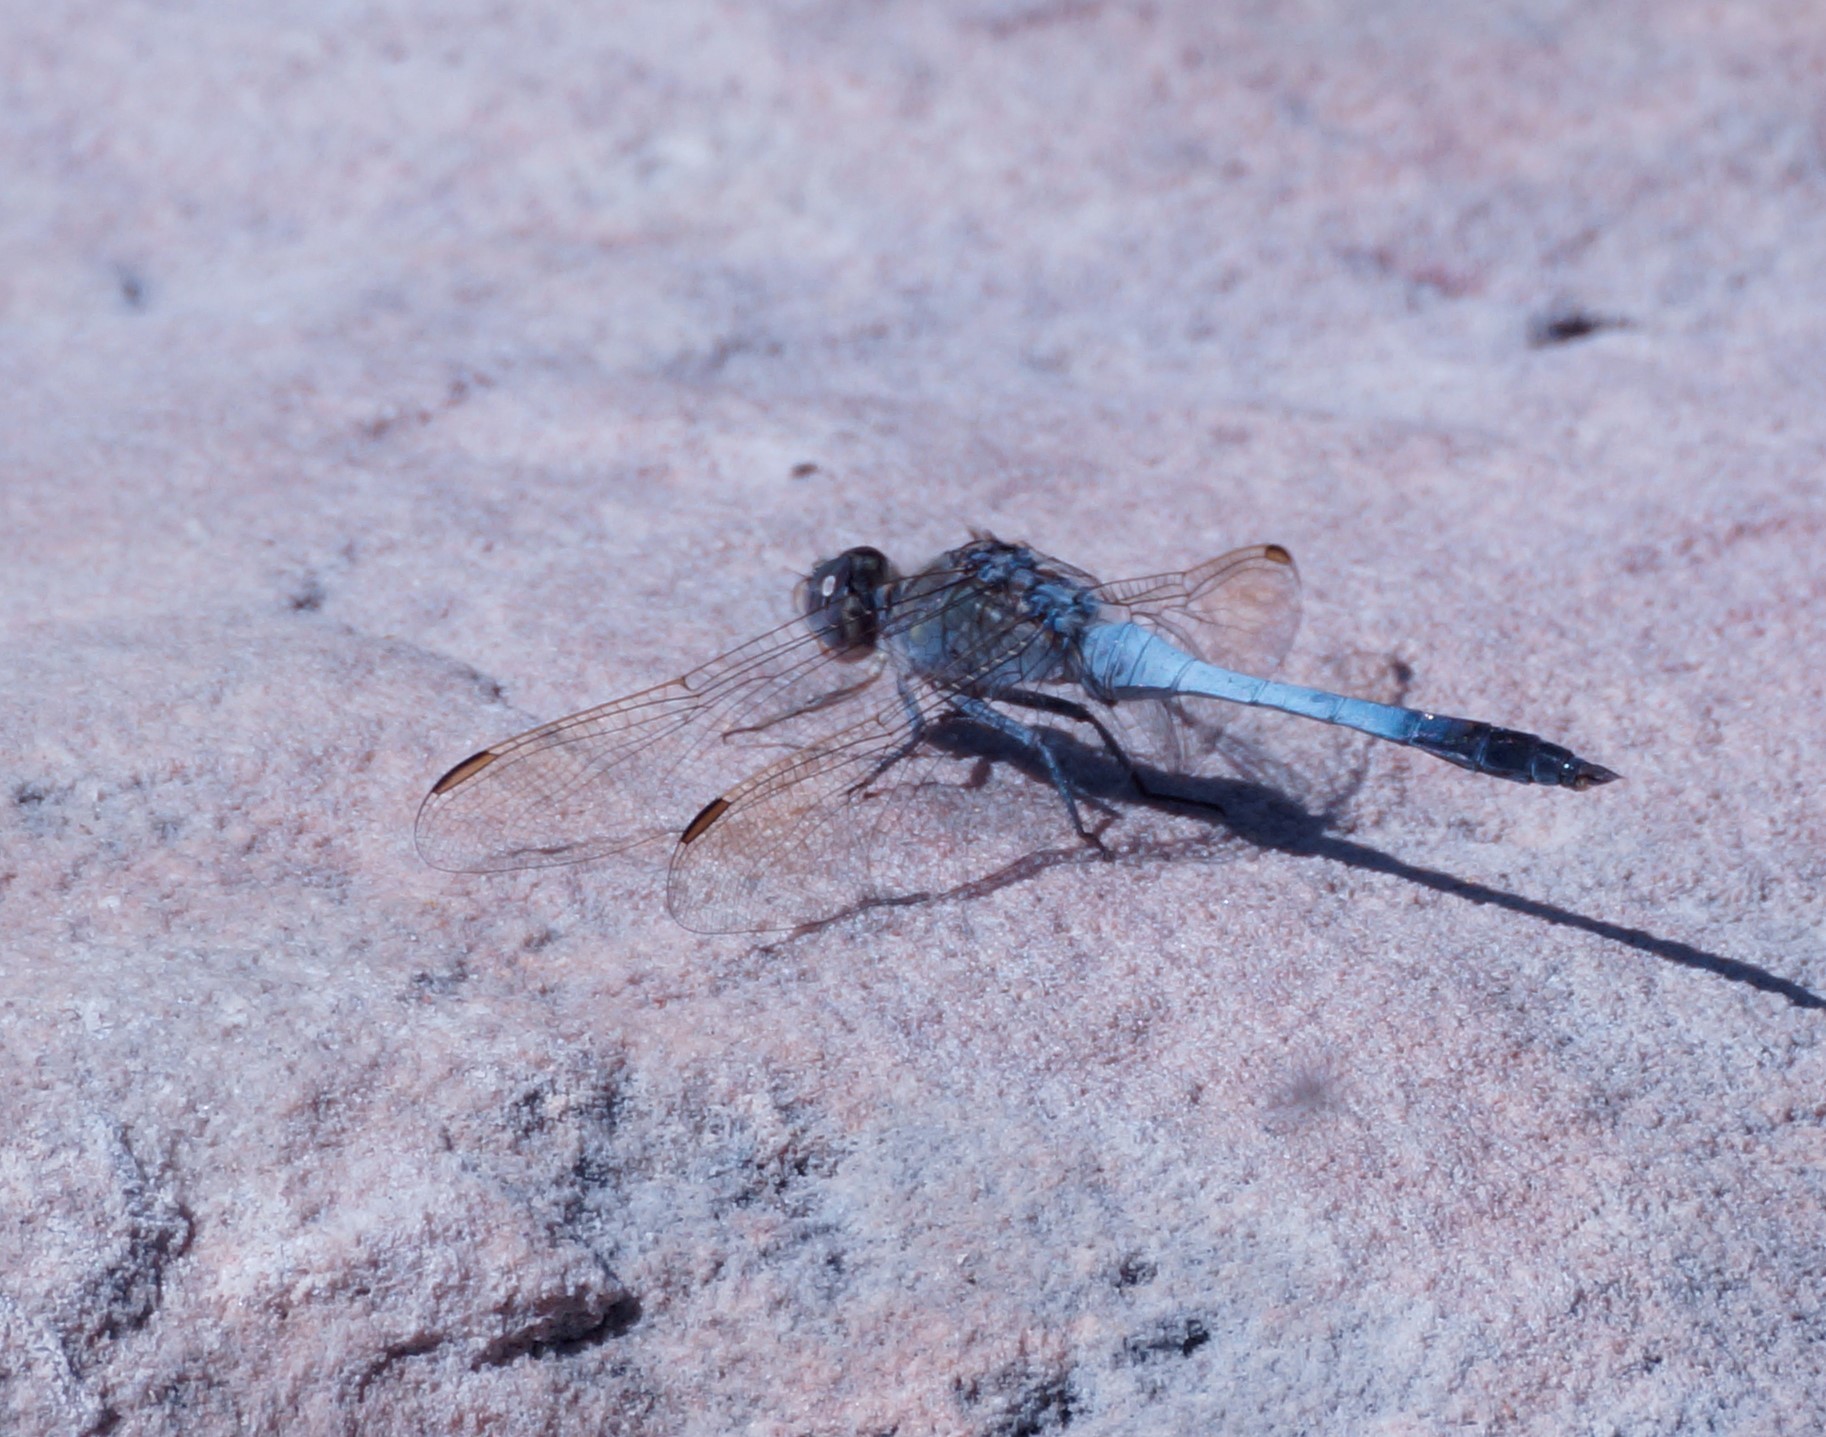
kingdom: Animalia
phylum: Arthropoda
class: Insecta
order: Odonata
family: Libellulidae
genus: Orthetrum
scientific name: Orthetrum caledonicum
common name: Blue skimmer
